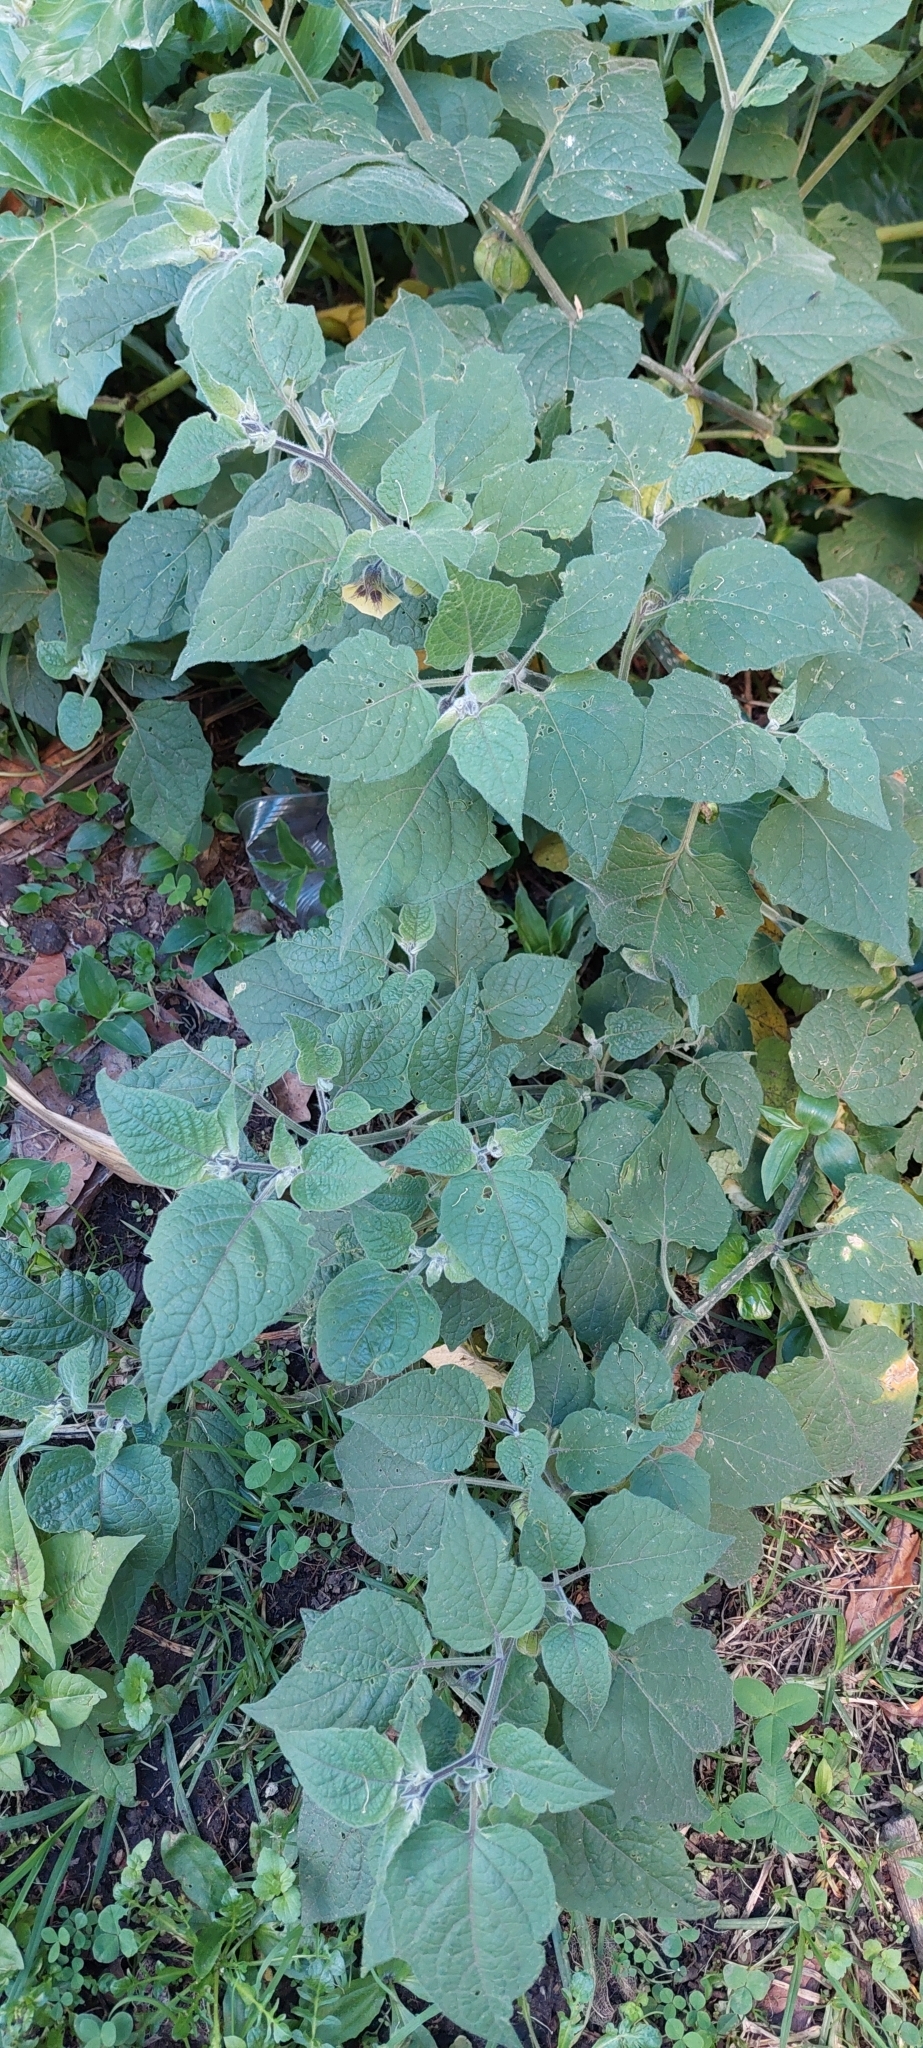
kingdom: Plantae
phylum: Tracheophyta
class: Magnoliopsida
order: Solanales
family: Solanaceae
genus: Physalis
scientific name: Physalis peruviana
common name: Cape-gooseberry
